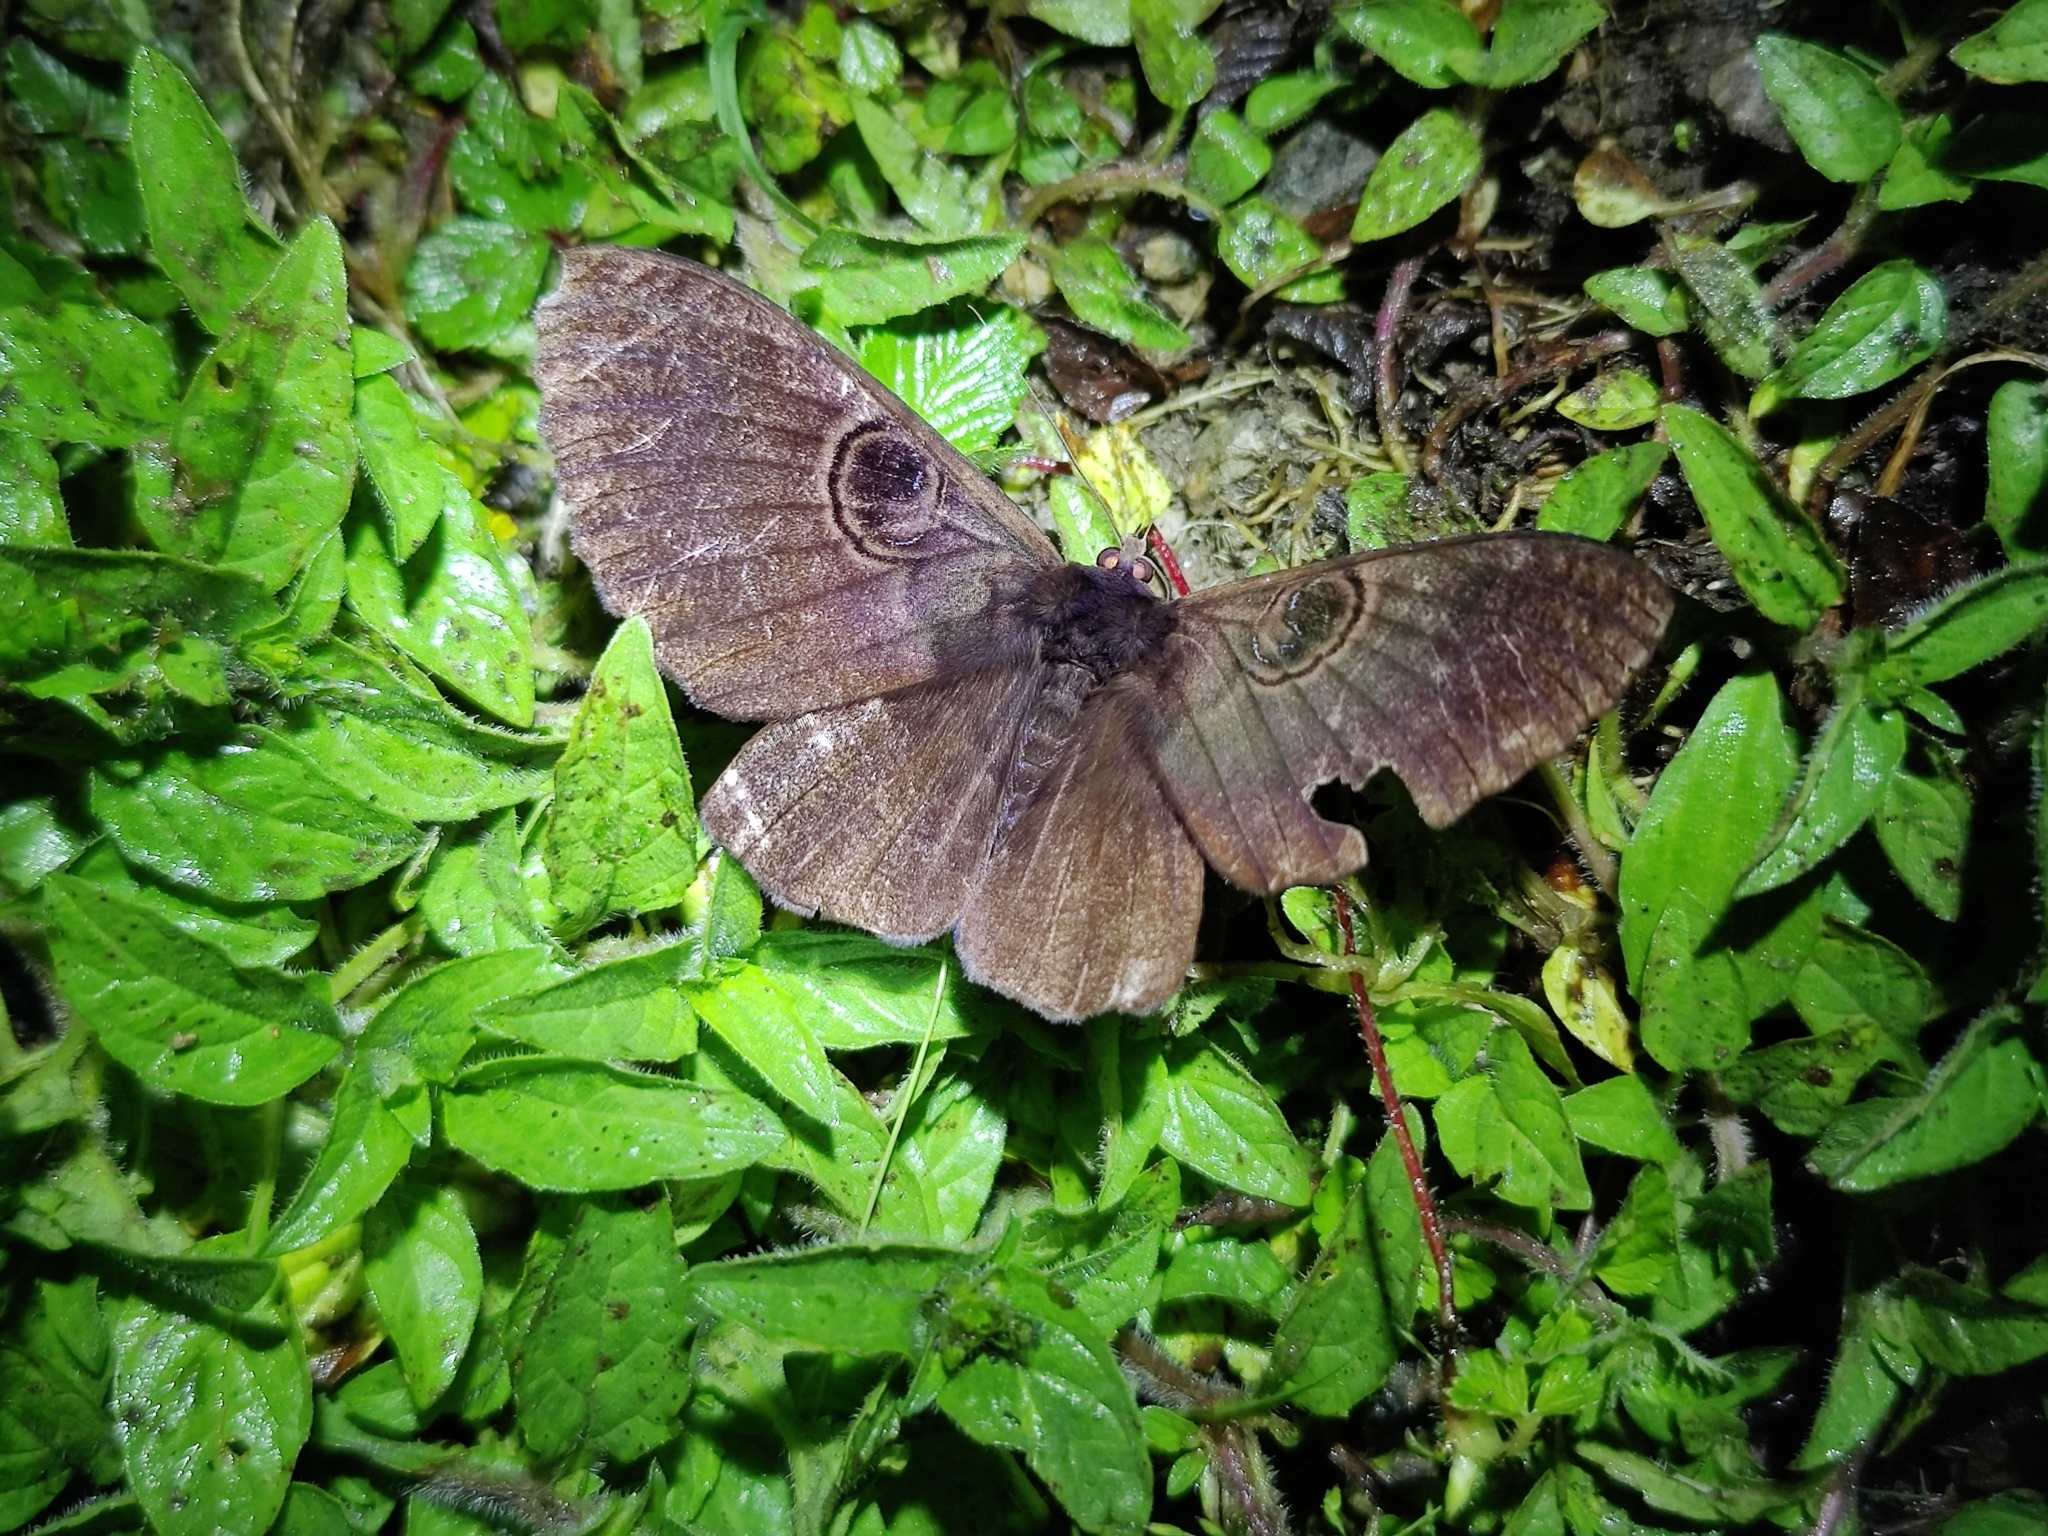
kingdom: Animalia
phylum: Arthropoda
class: Insecta
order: Lepidoptera
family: Erebidae
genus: Erebus
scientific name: Erebus caprimulgus
